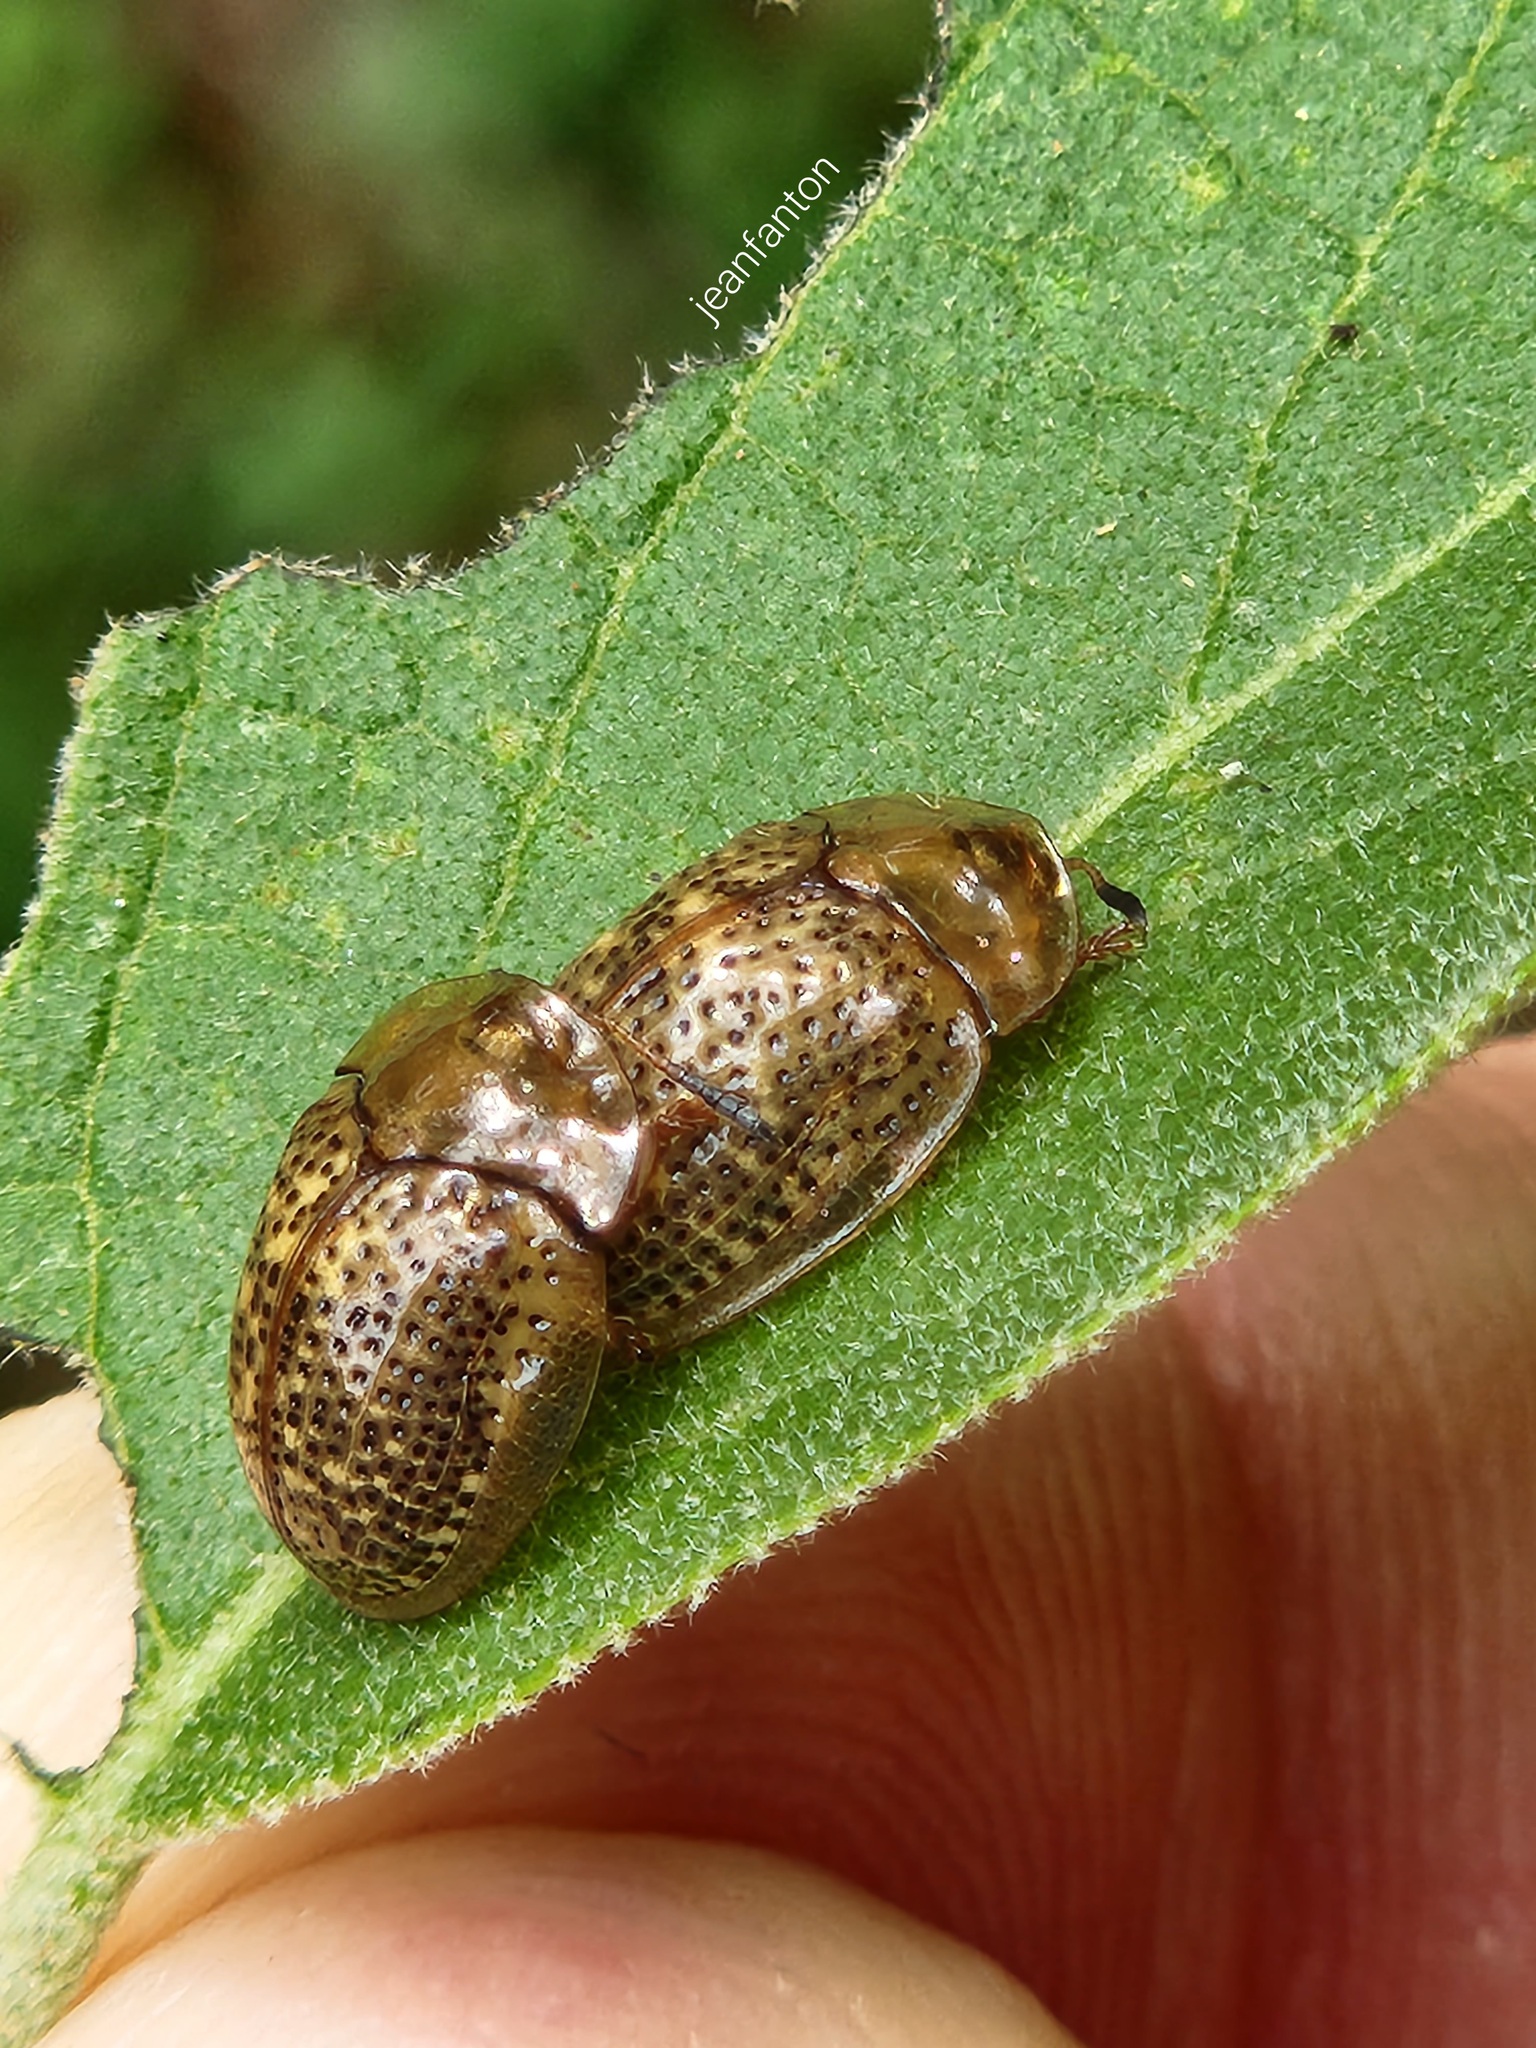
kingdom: Animalia
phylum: Arthropoda
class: Insecta
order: Coleoptera
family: Chrysomelidae
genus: Cistudinella
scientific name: Cistudinella obducta
